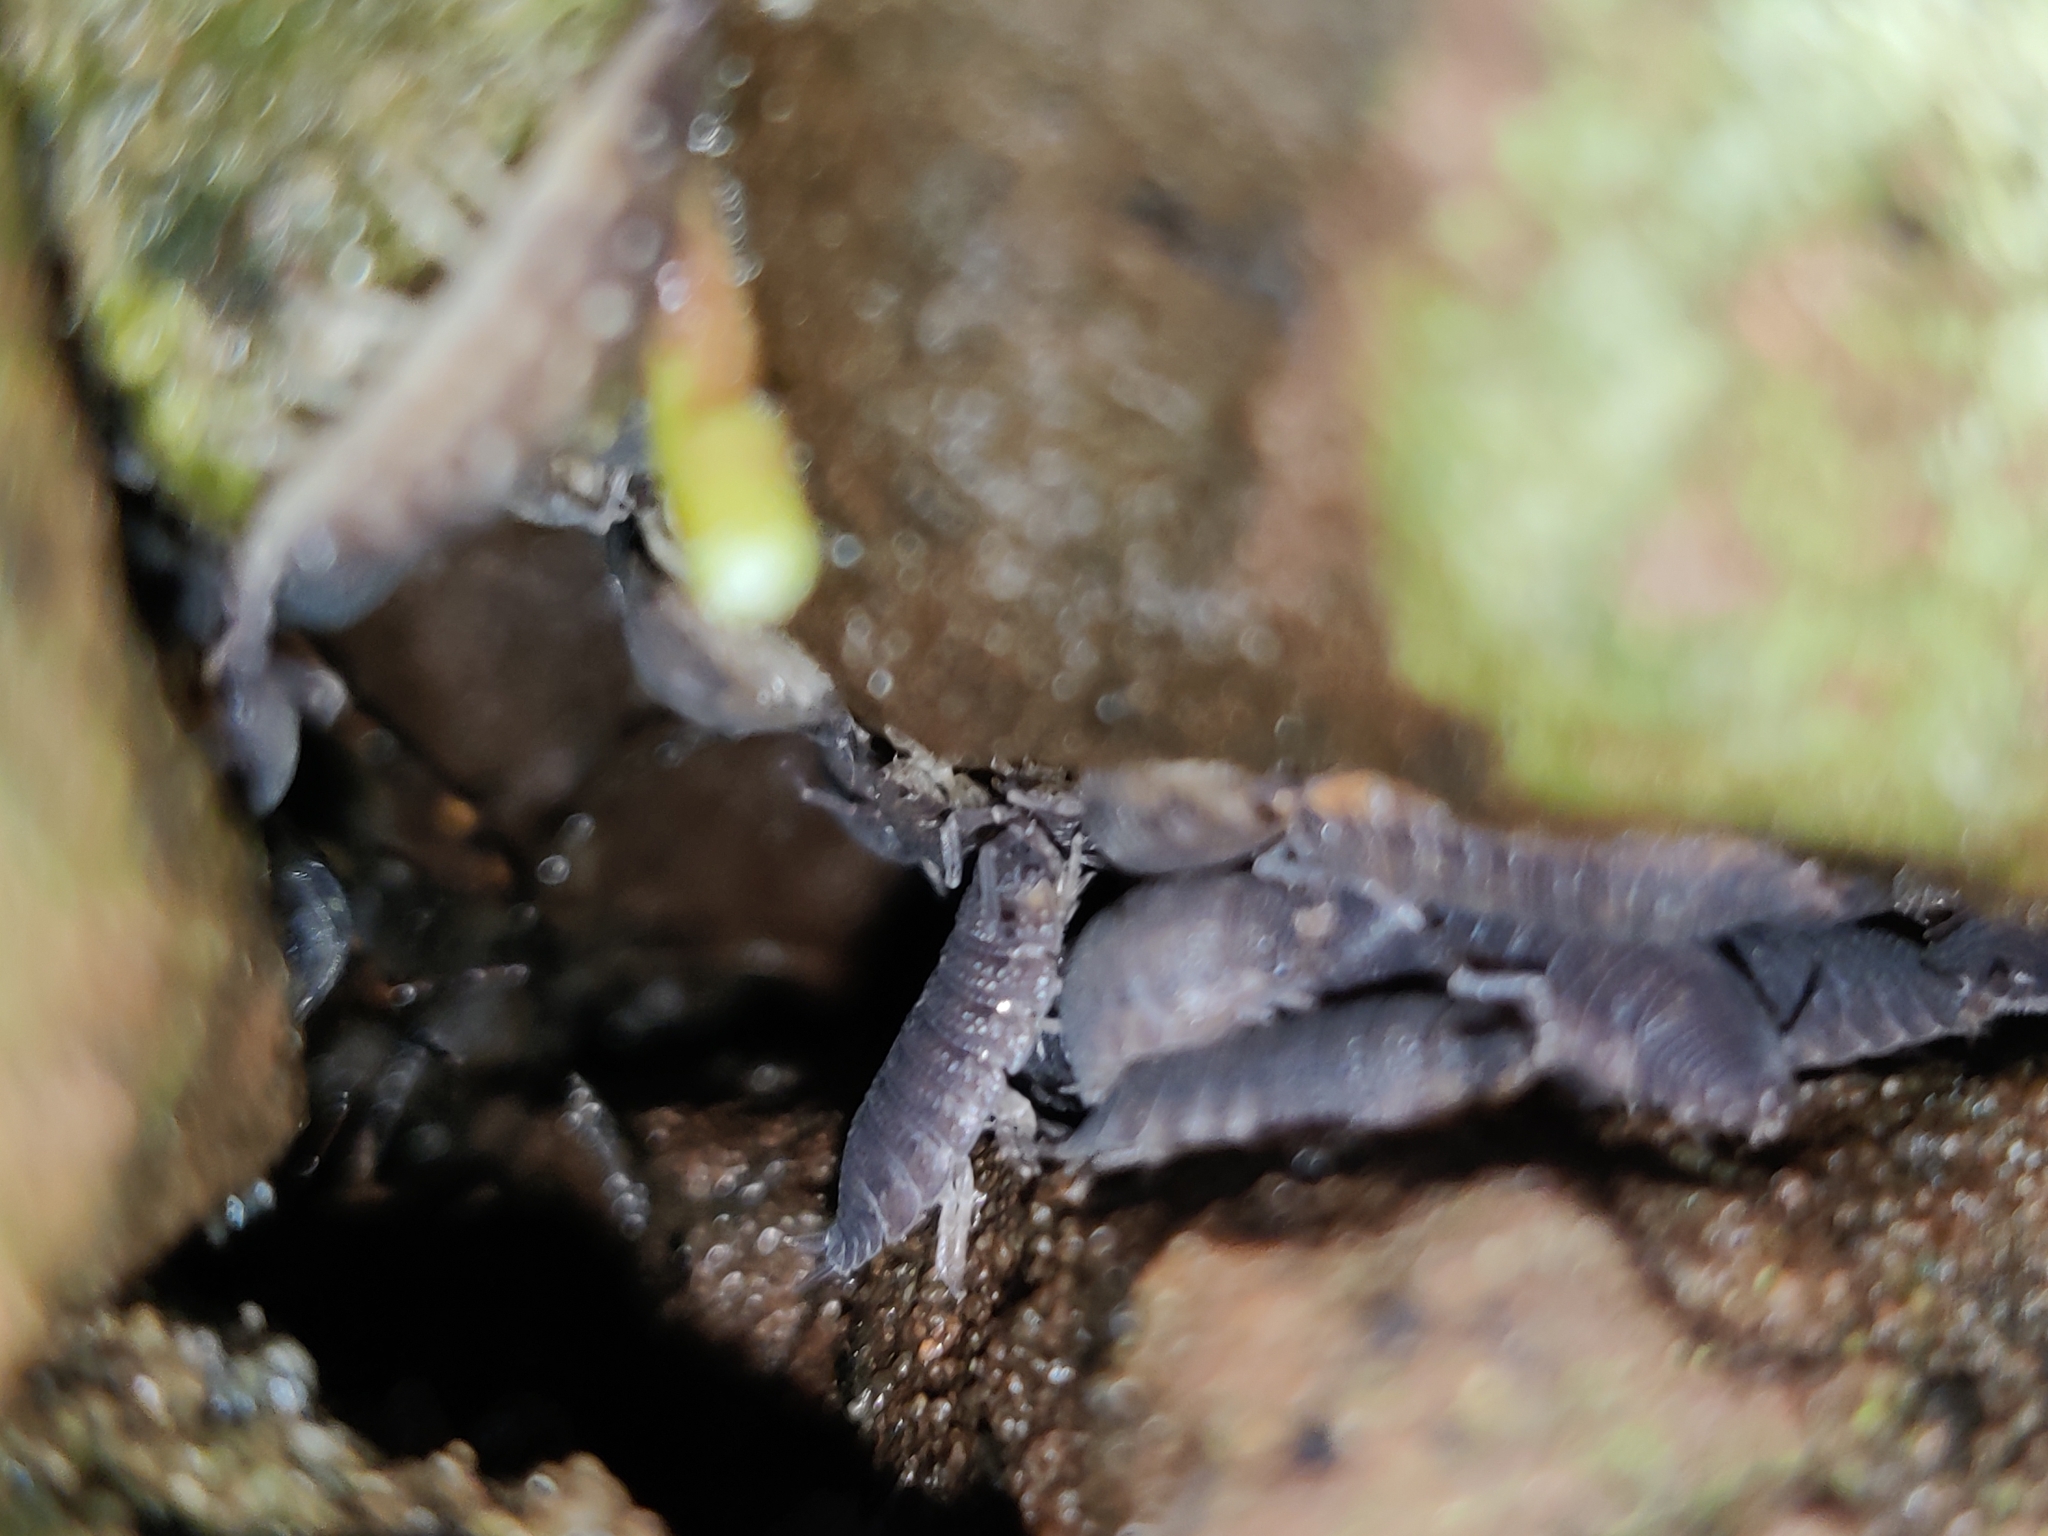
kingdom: Animalia
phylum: Arthropoda
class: Malacostraca
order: Isopoda
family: Porcellionidae
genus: Porcellio
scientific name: Porcellio scaber
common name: Common rough woodlouse
